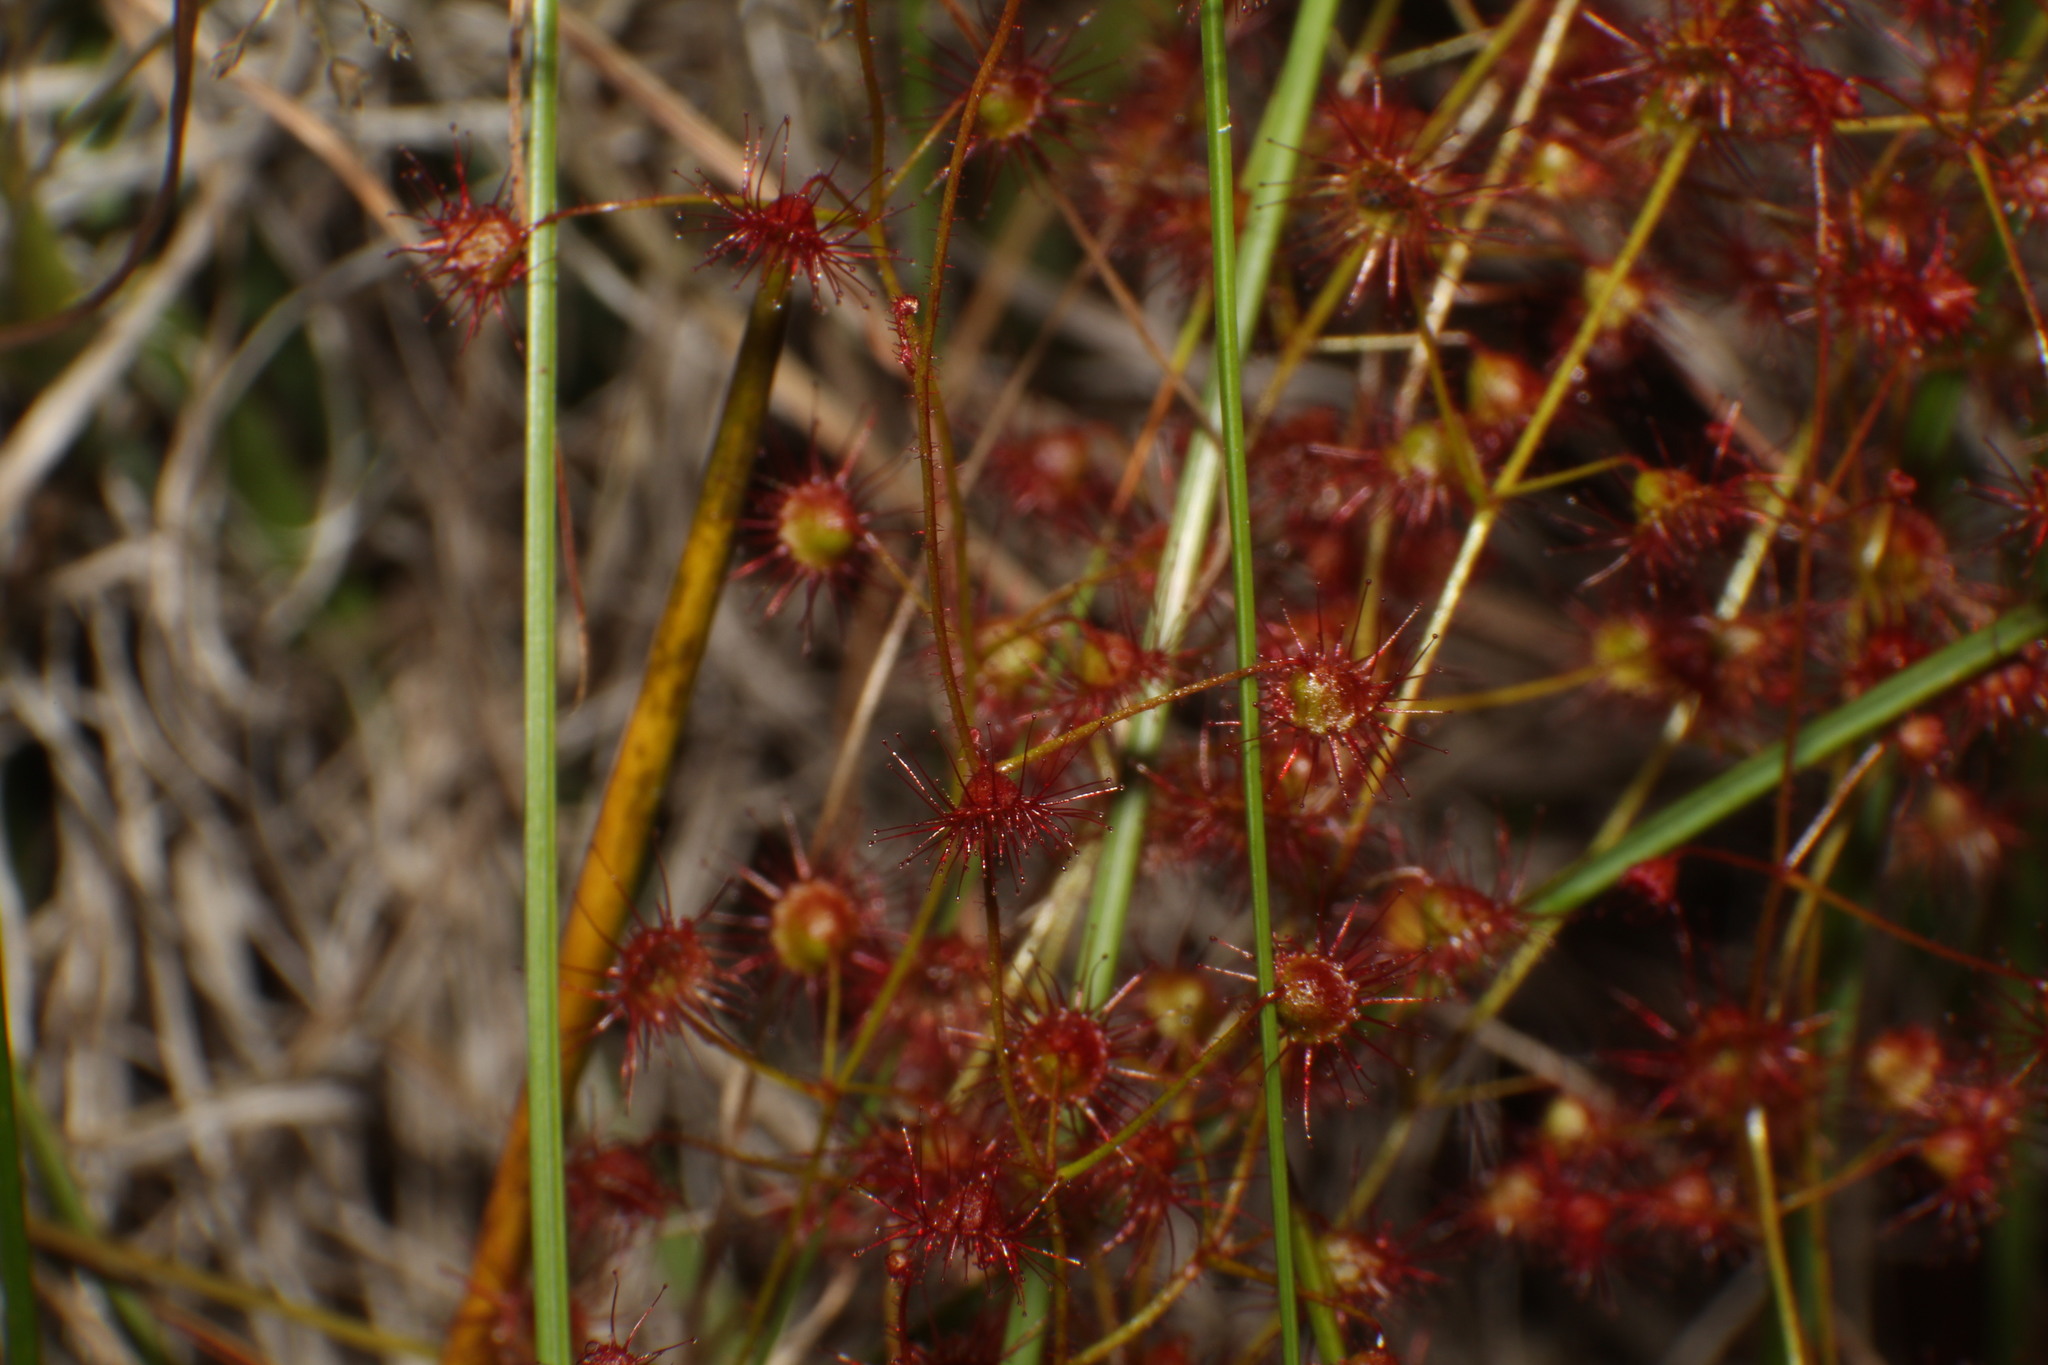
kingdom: Plantae
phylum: Tracheophyta
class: Magnoliopsida
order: Caryophyllales
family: Droseraceae
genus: Drosera
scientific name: Drosera macrantha
